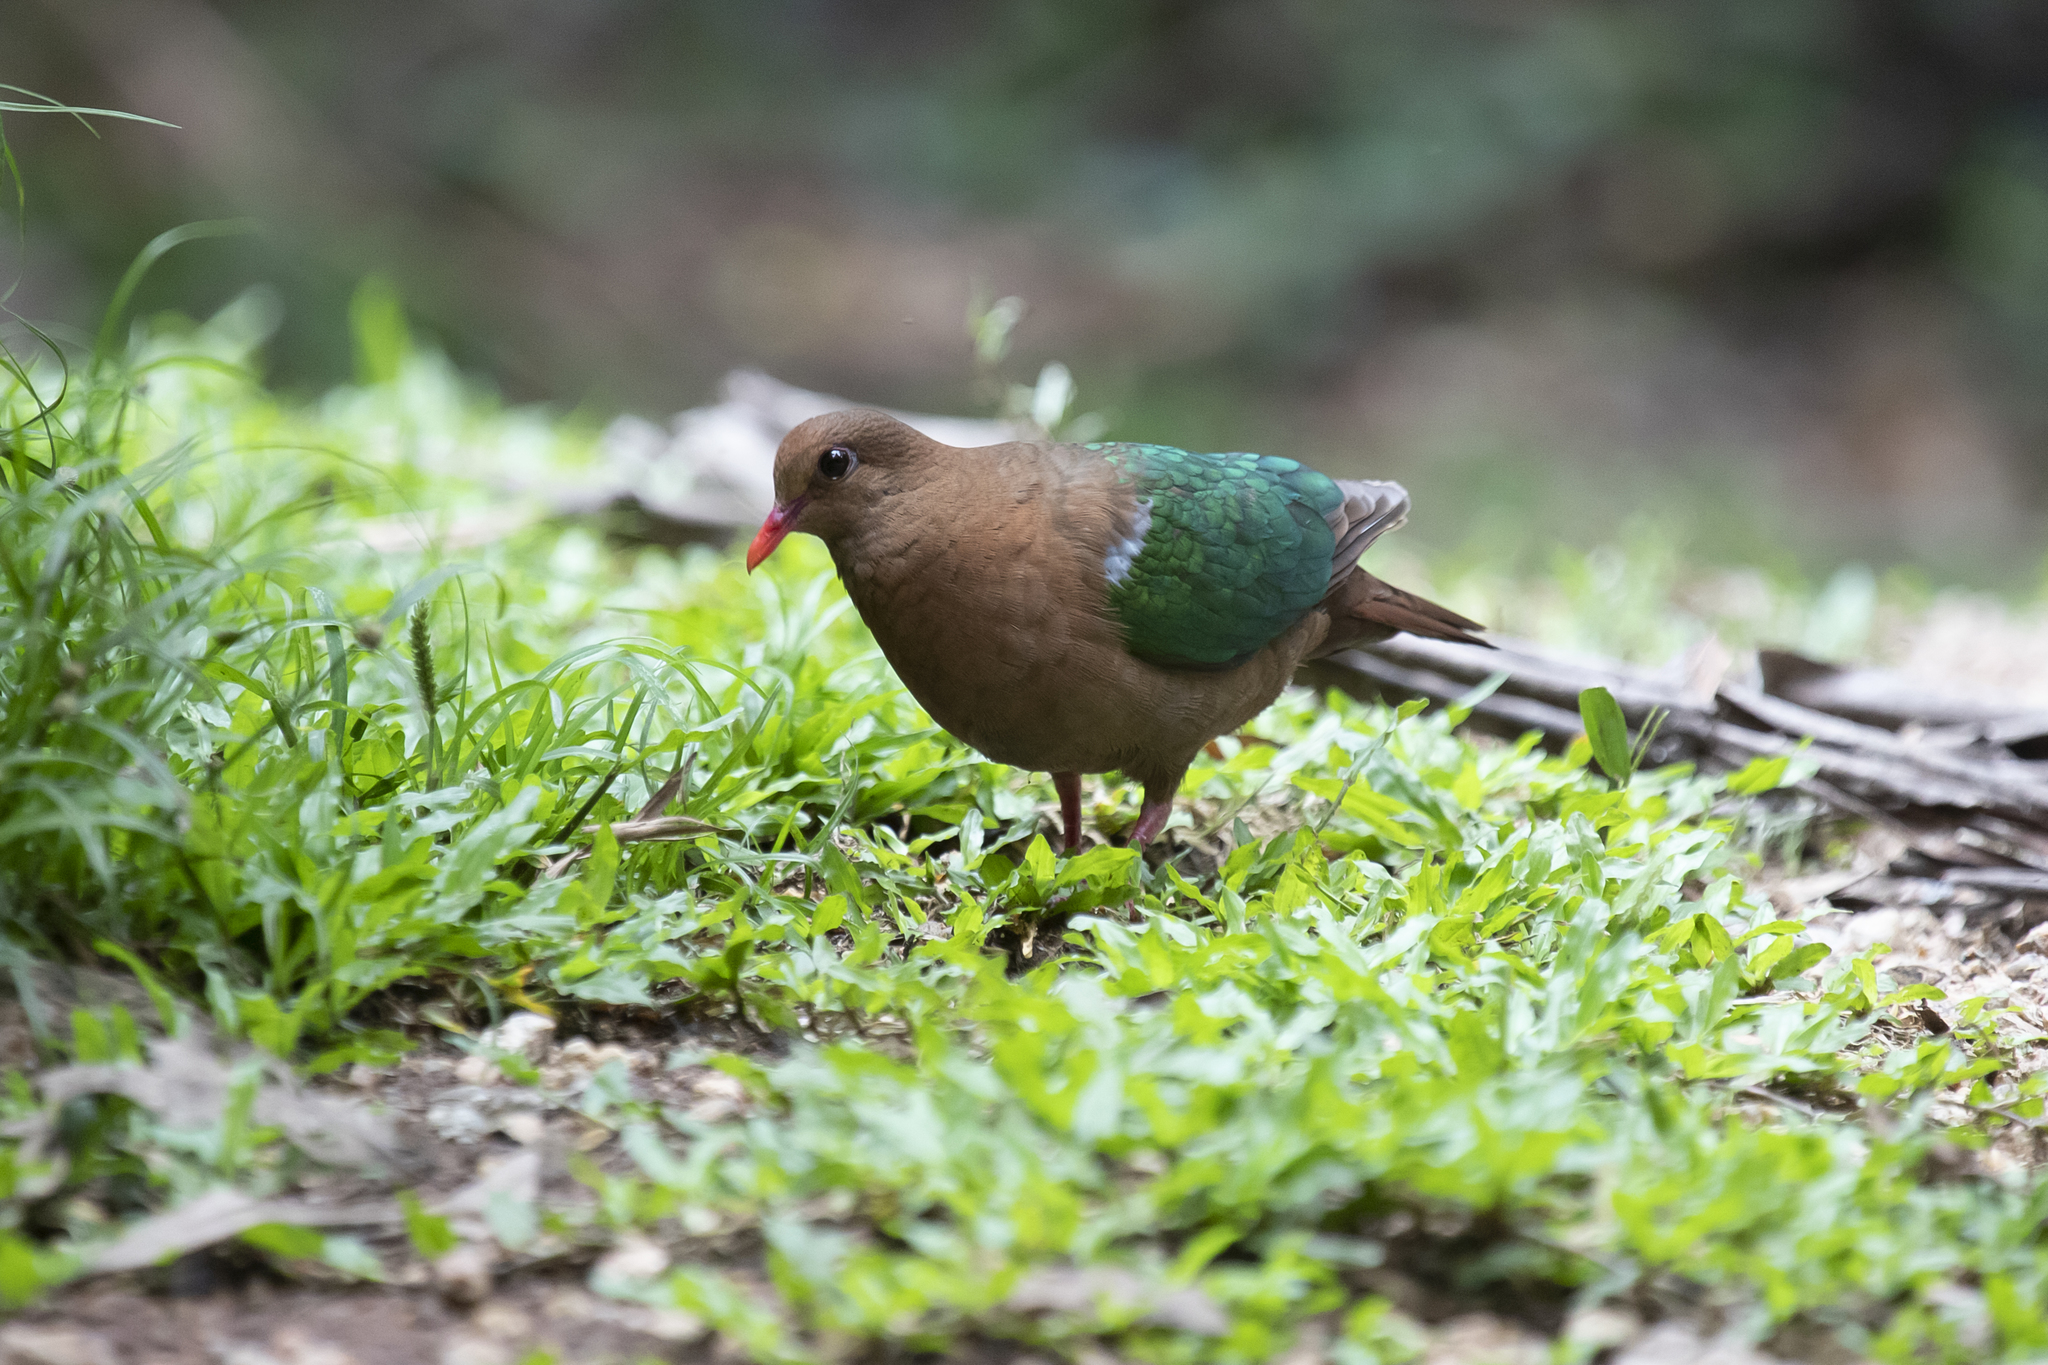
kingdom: Animalia
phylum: Chordata
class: Aves
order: Columbiformes
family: Columbidae
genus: Chalcophaps
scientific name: Chalcophaps longirostris
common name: Pacific emerald dove
